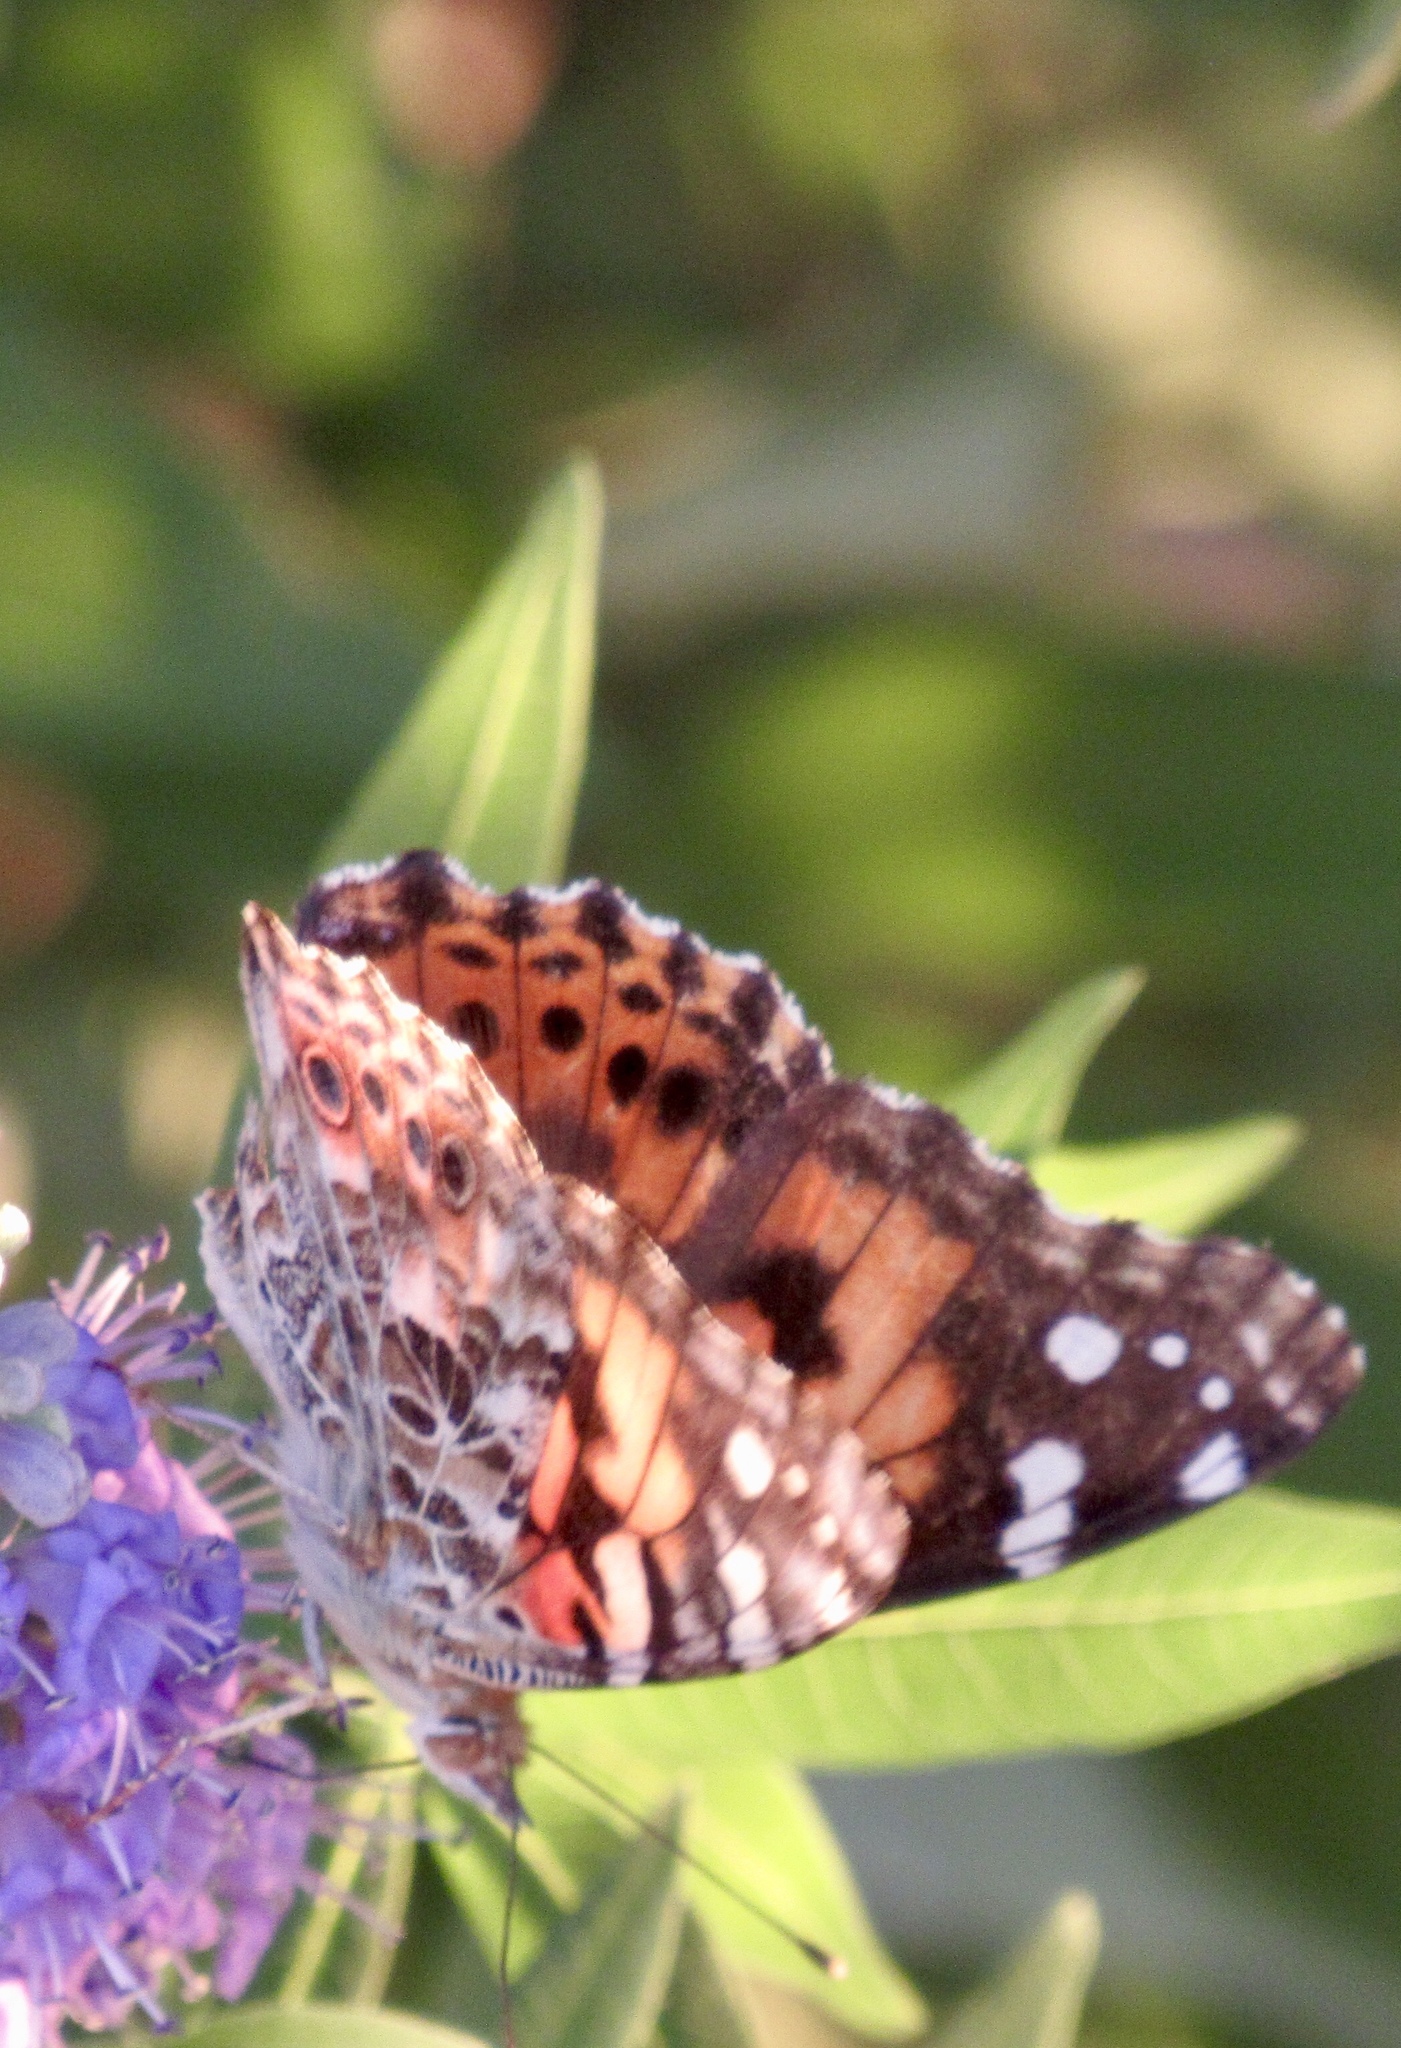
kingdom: Animalia
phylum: Arthropoda
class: Insecta
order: Lepidoptera
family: Nymphalidae
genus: Vanessa
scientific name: Vanessa cardui
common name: Painted lady
